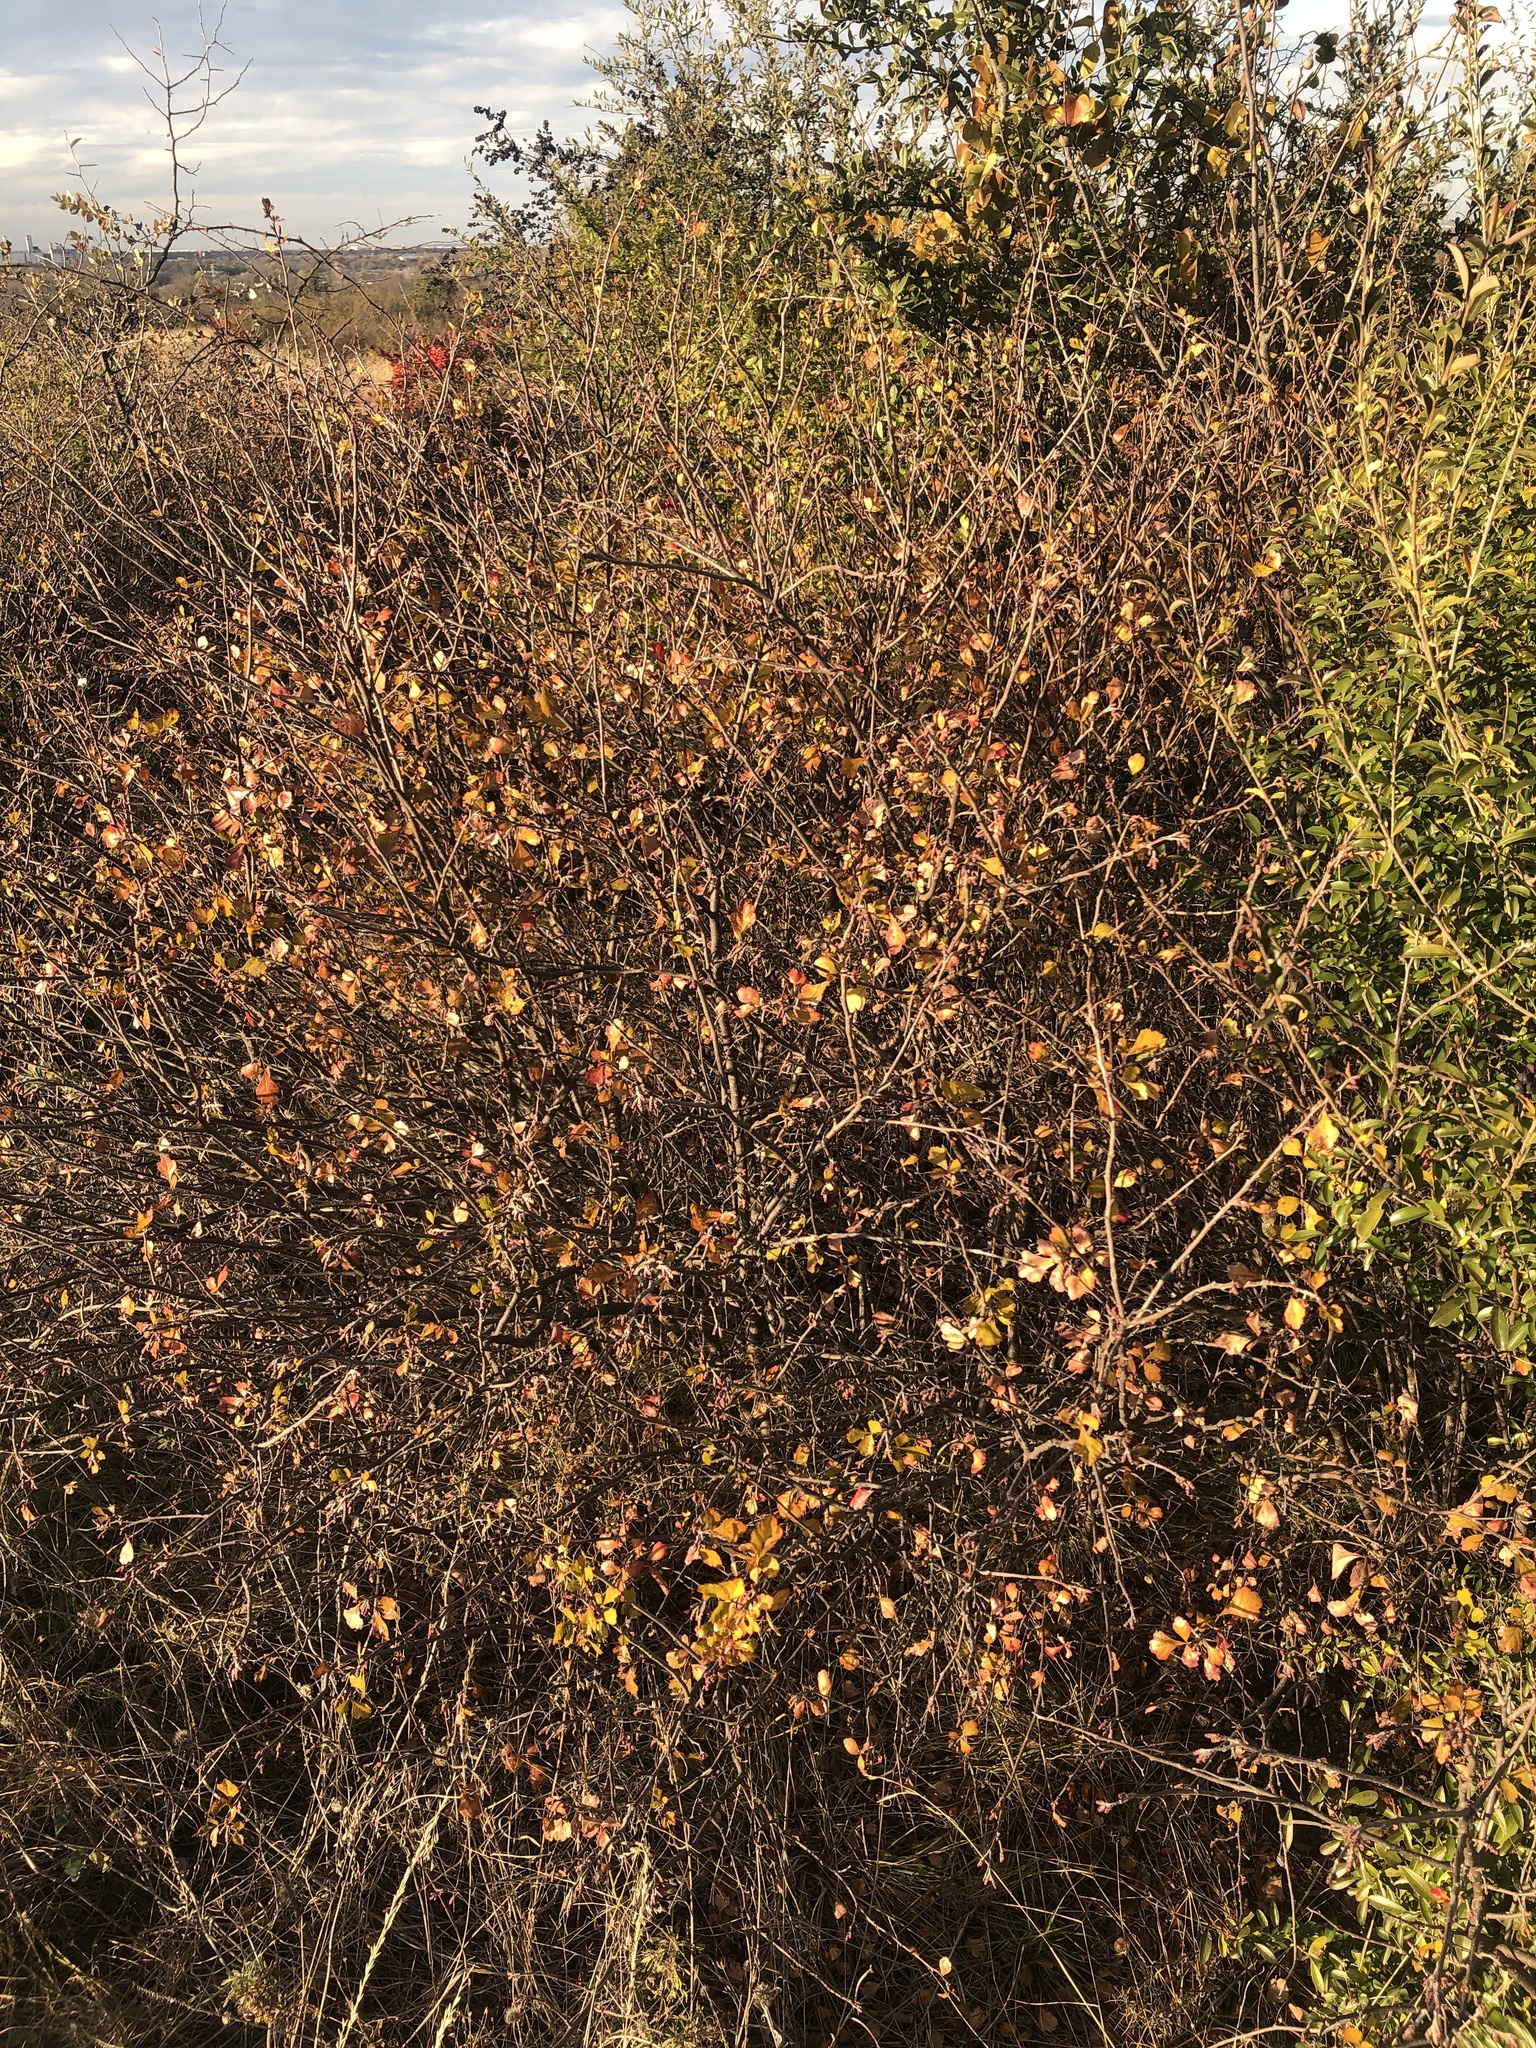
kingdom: Plantae
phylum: Tracheophyta
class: Magnoliopsida
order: Sapindales
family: Anacardiaceae
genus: Rhus
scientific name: Rhus aromatica
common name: Aromatic sumac
